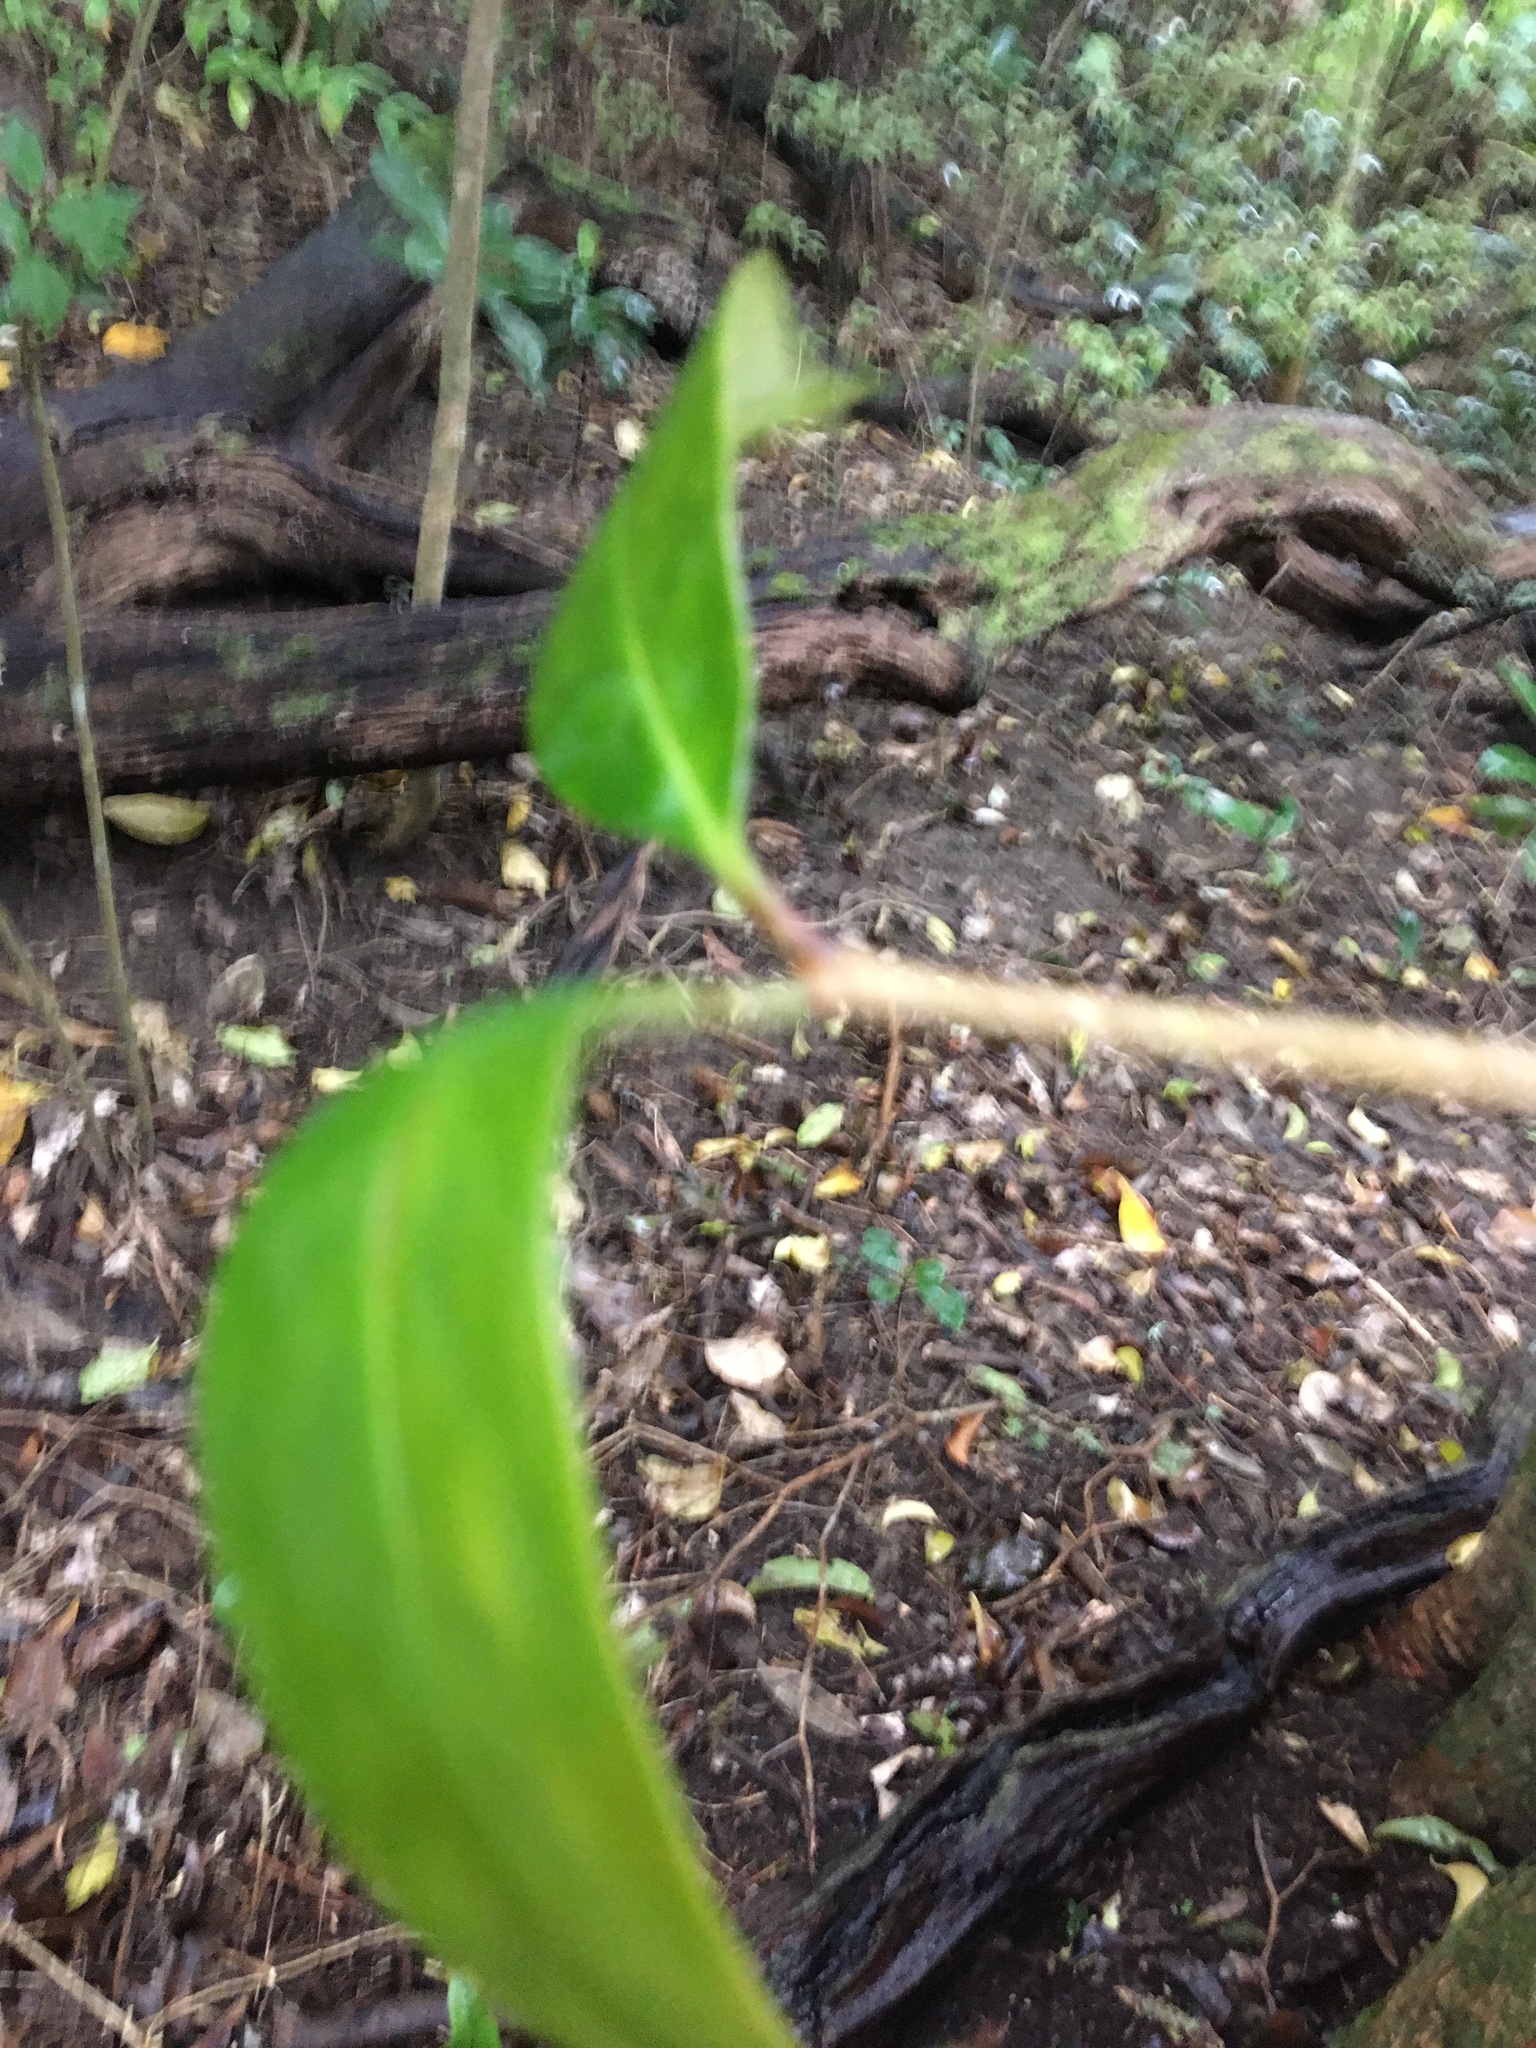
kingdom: Plantae
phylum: Tracheophyta
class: Magnoliopsida
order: Lamiales
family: Oleaceae
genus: Ligustrum
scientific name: Ligustrum lucidum
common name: Glossy privet
